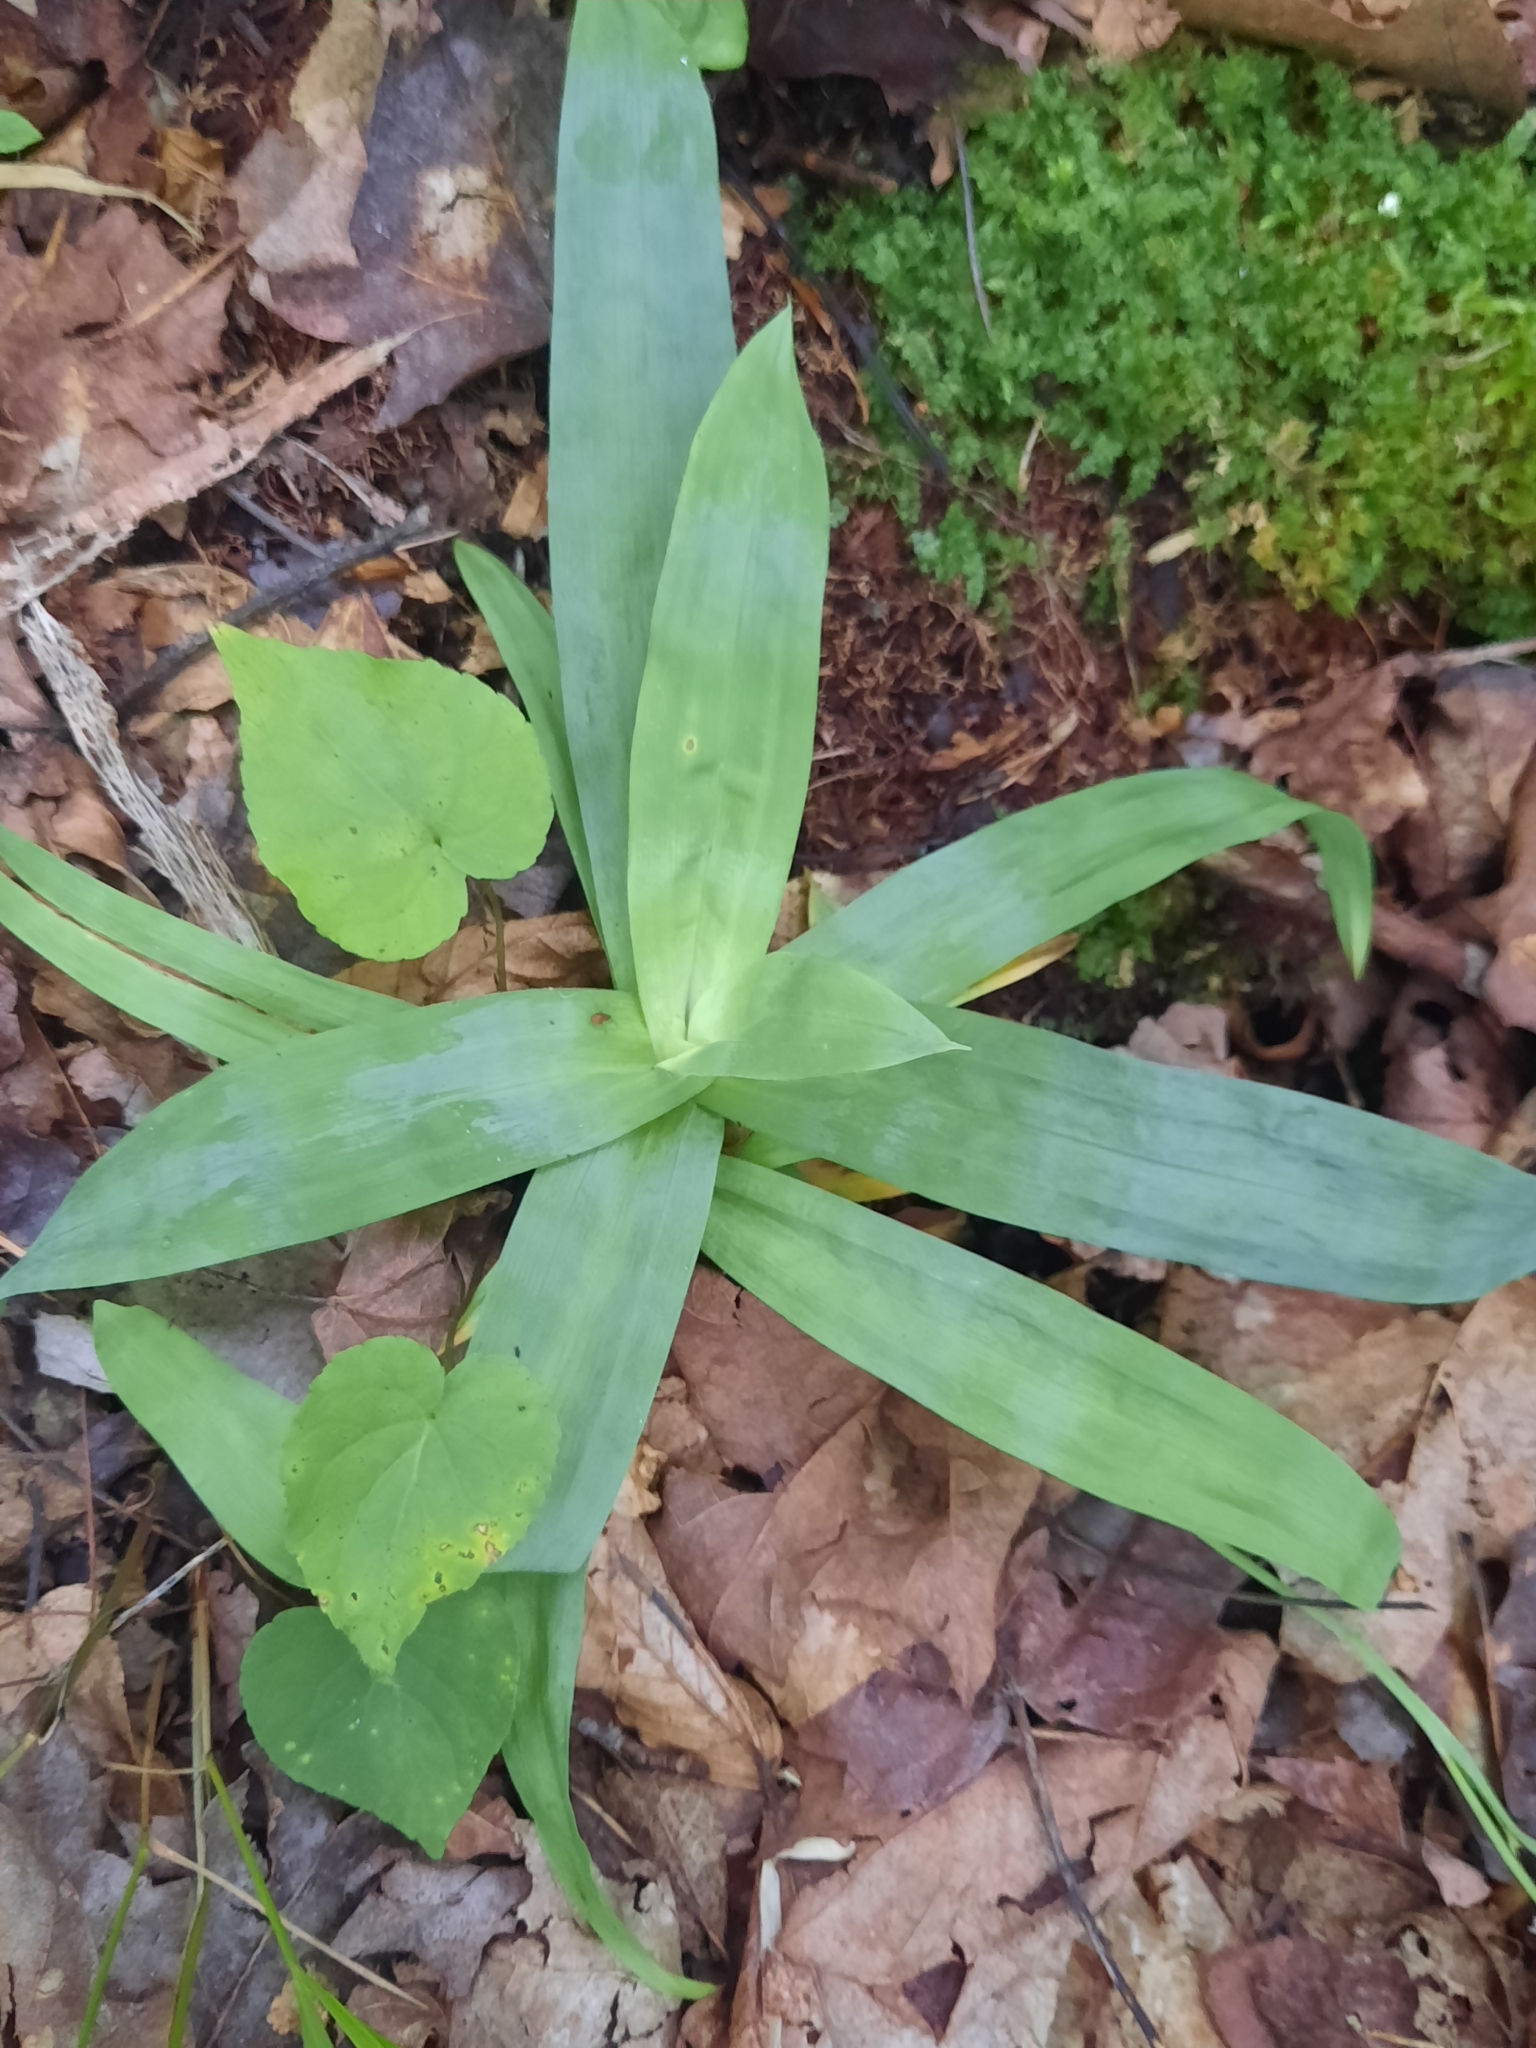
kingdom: Plantae
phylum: Tracheophyta
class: Liliopsida
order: Poales
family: Cyperaceae
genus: Carex
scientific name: Carex platyphylla
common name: Broad-leaved sedge
